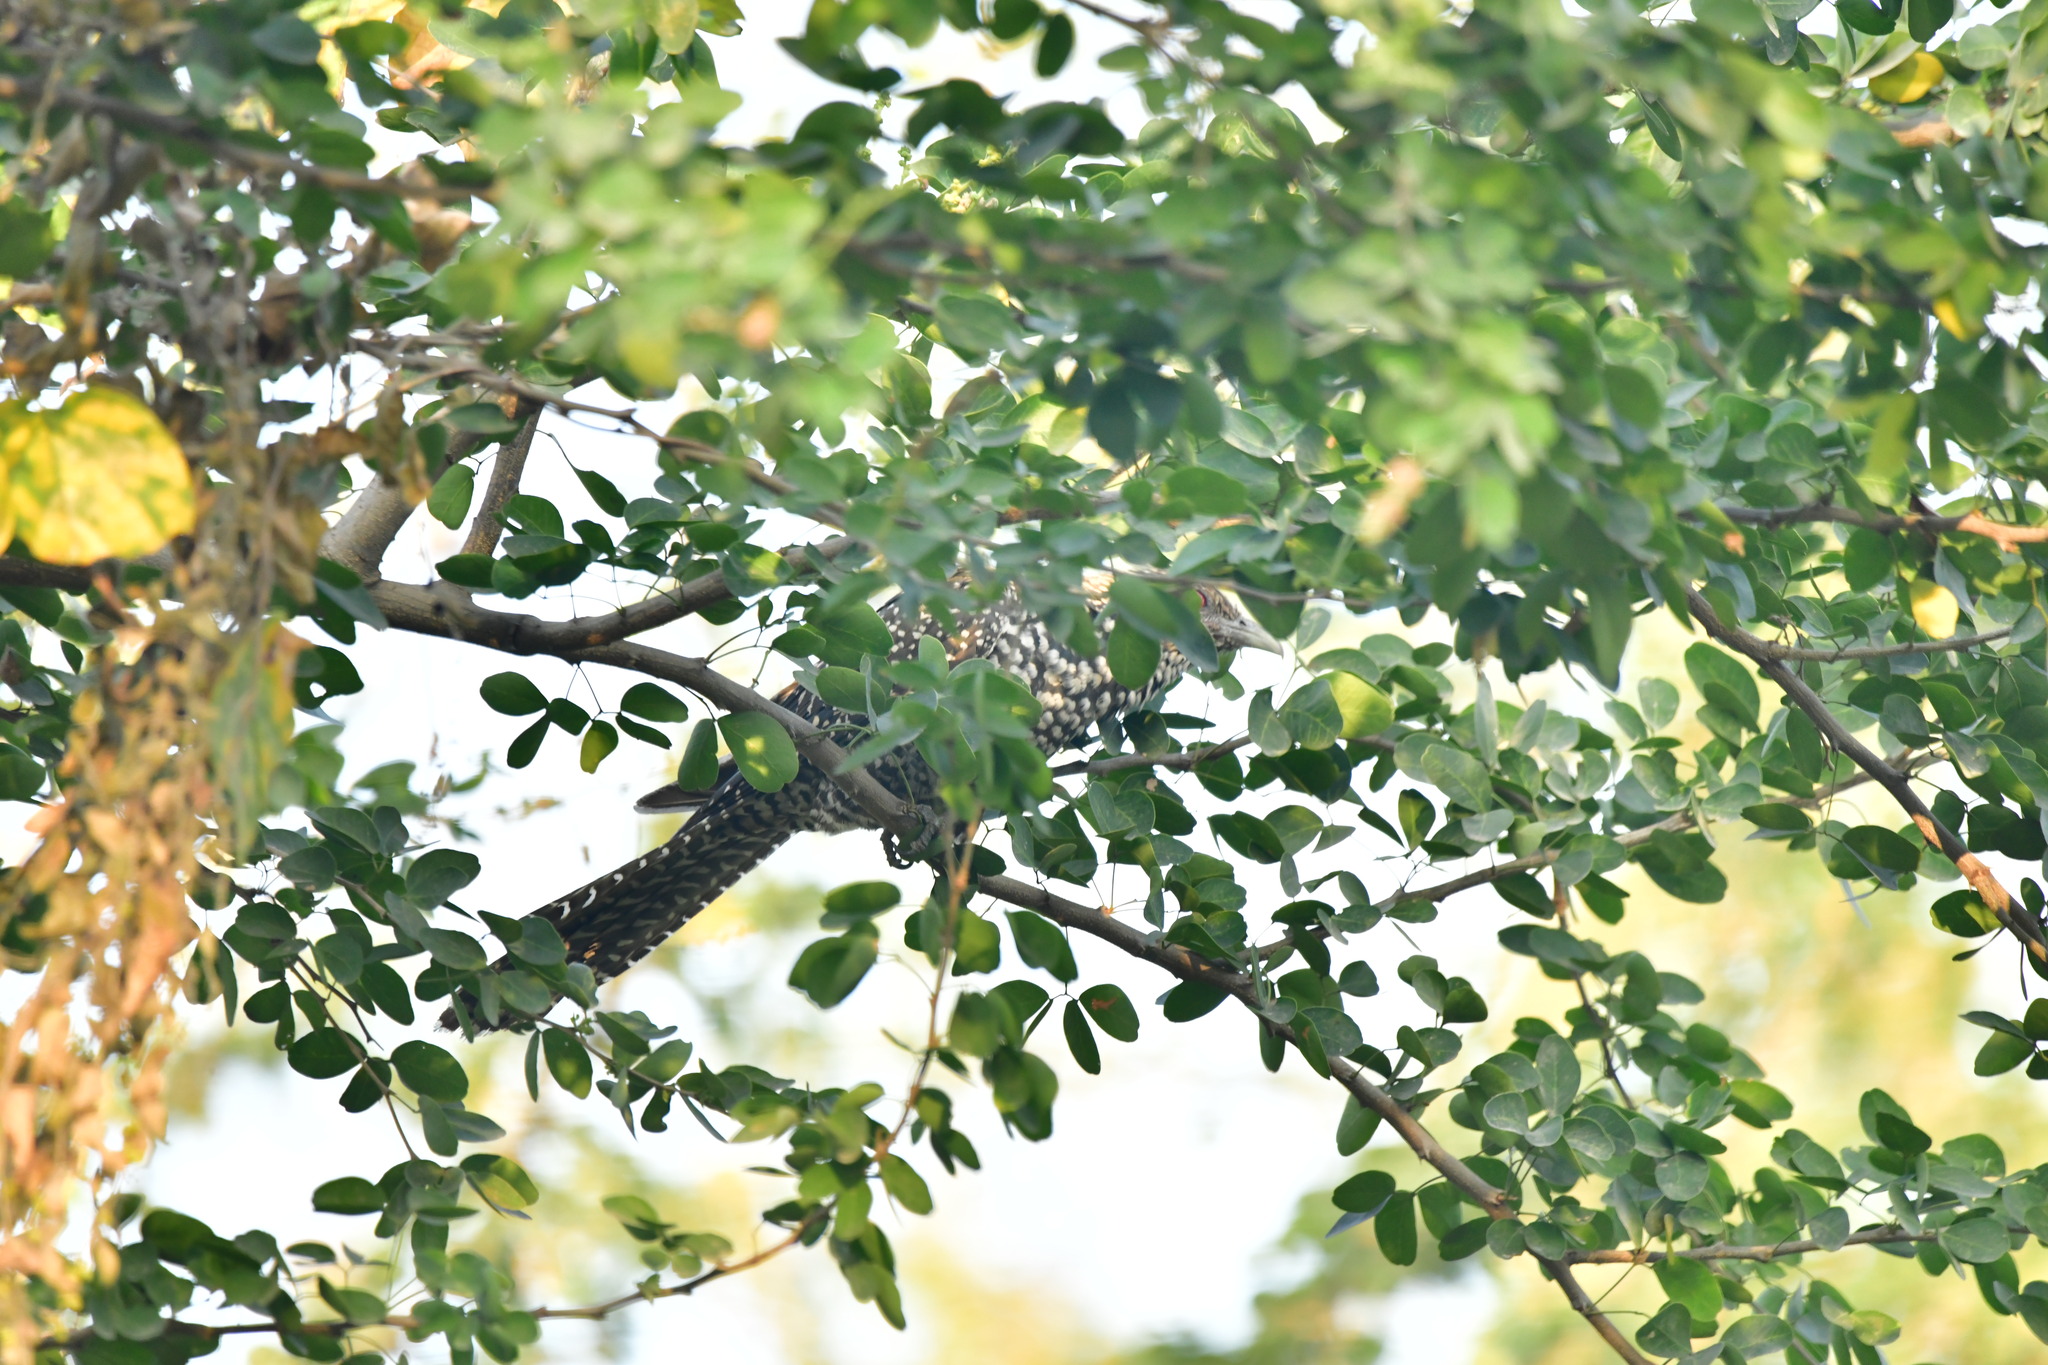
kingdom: Animalia
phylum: Chordata
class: Aves
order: Cuculiformes
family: Cuculidae
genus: Eudynamys
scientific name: Eudynamys scolopaceus
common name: Asian koel
